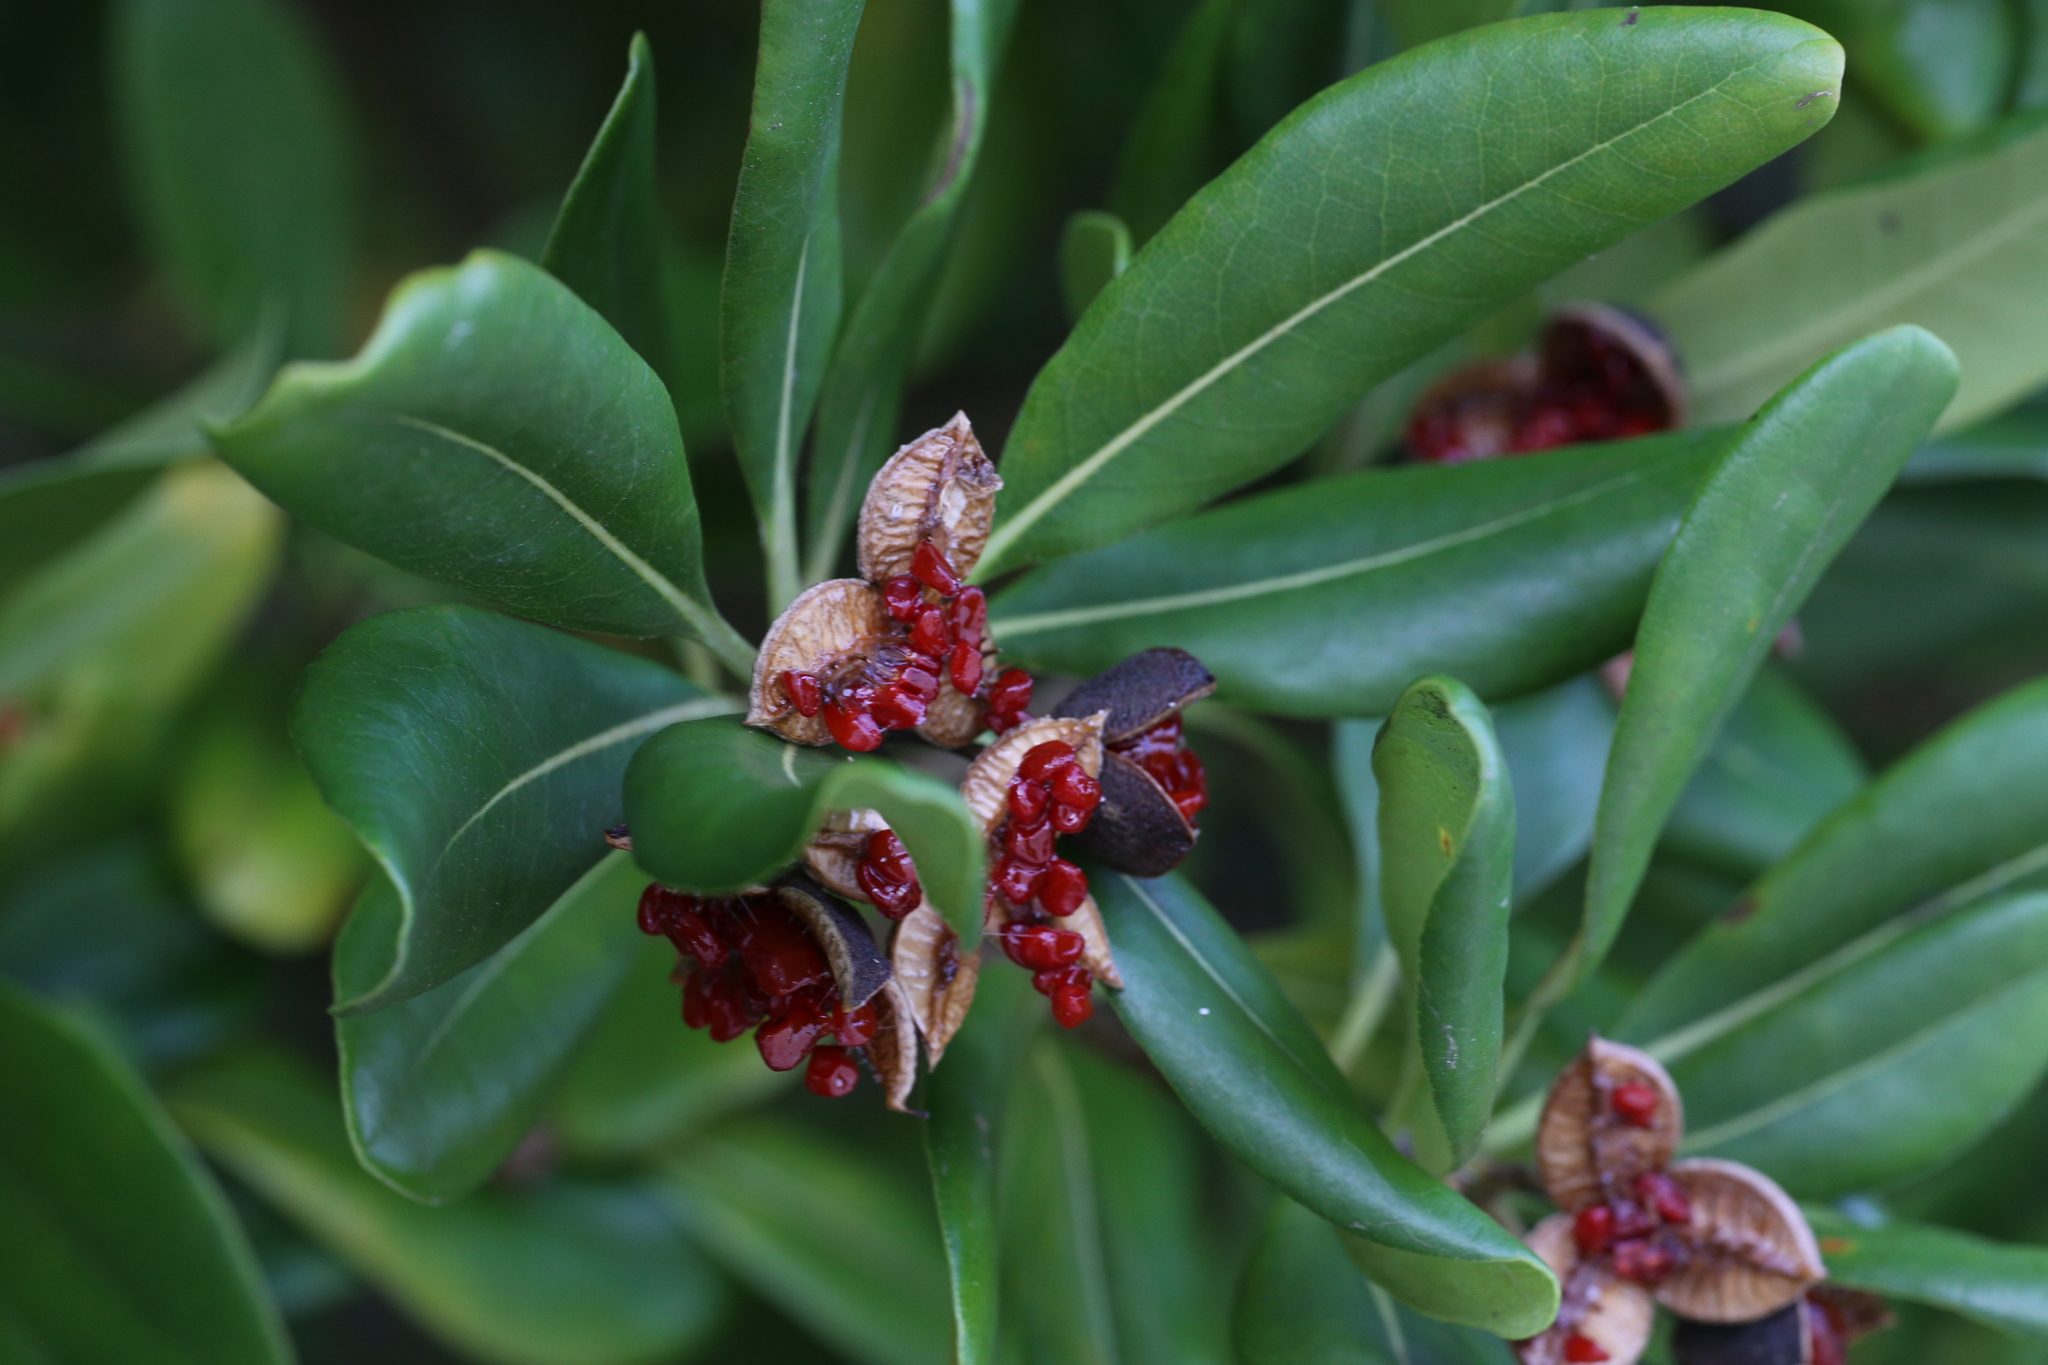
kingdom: Plantae
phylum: Tracheophyta
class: Magnoliopsida
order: Apiales
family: Pittosporaceae
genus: Pittosporum
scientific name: Pittosporum tobira
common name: Japanese cheesewood
